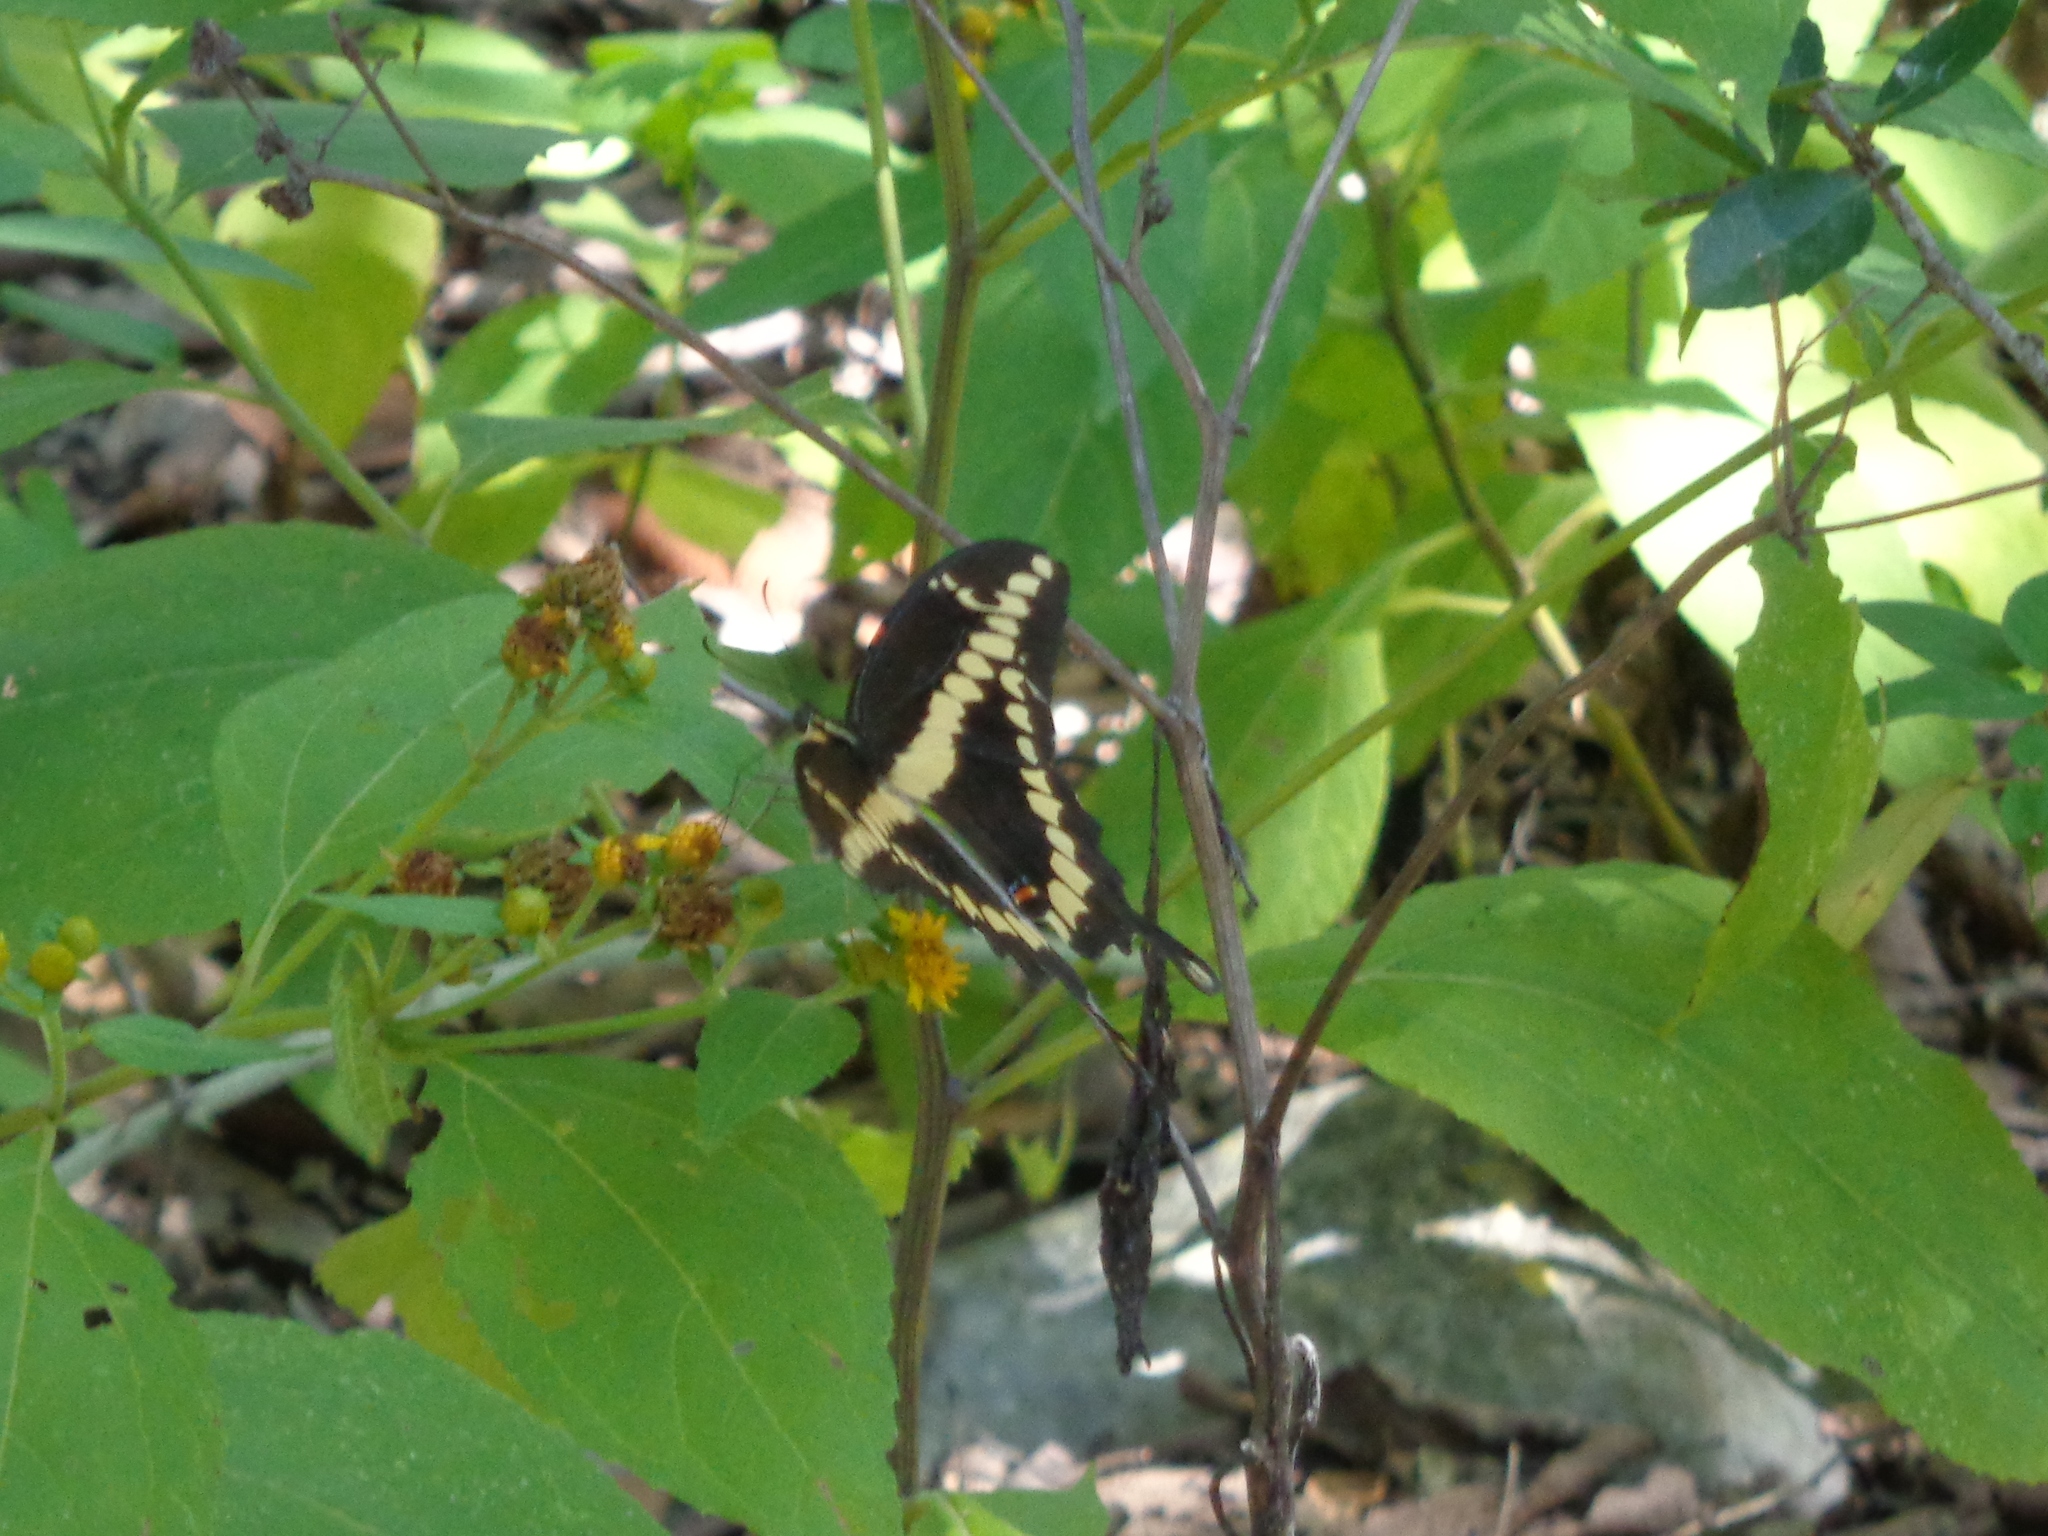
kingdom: Animalia
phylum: Arthropoda
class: Insecta
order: Lepidoptera
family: Papilionidae
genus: Papilio
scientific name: Papilio rumiko
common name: Western giant swallowtail
